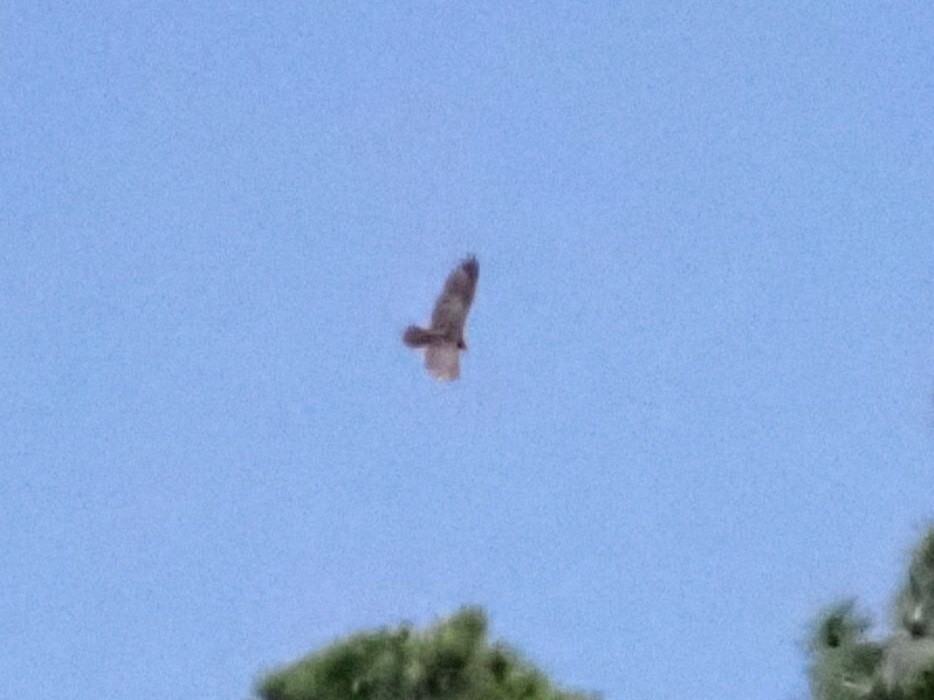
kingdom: Animalia
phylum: Chordata
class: Aves
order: Accipitriformes
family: Cathartidae
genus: Cathartes
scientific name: Cathartes aura
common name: Turkey vulture
